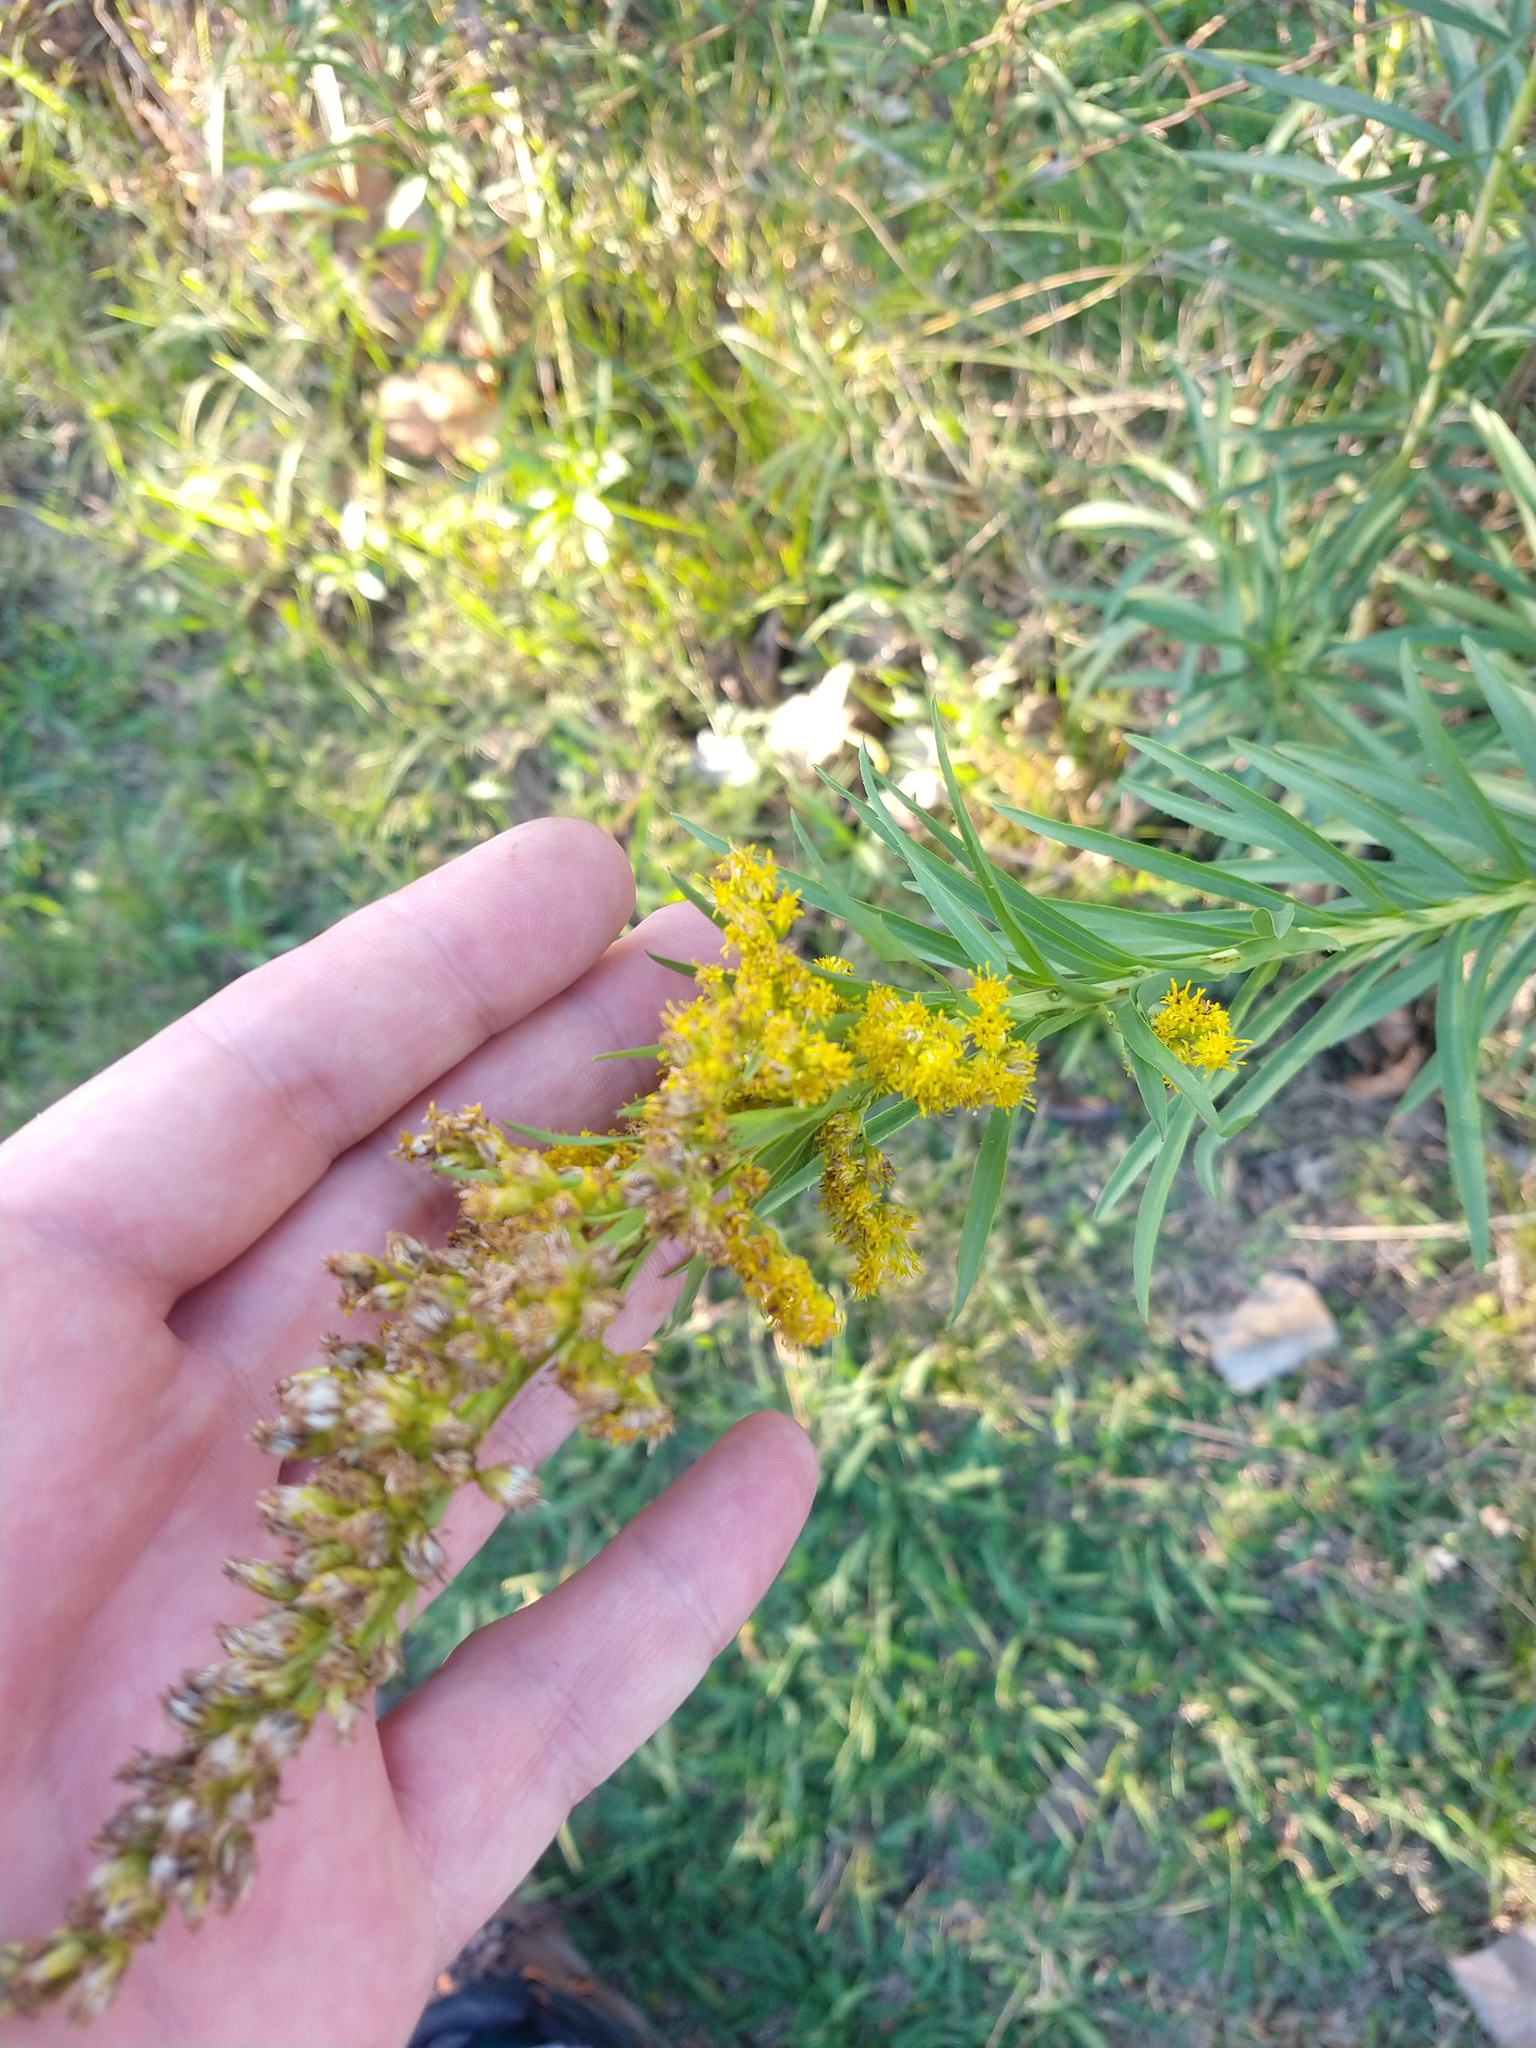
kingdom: Plantae
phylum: Tracheophyta
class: Magnoliopsida
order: Asterales
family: Asteraceae
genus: Solidago
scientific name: Solidago chilensis
